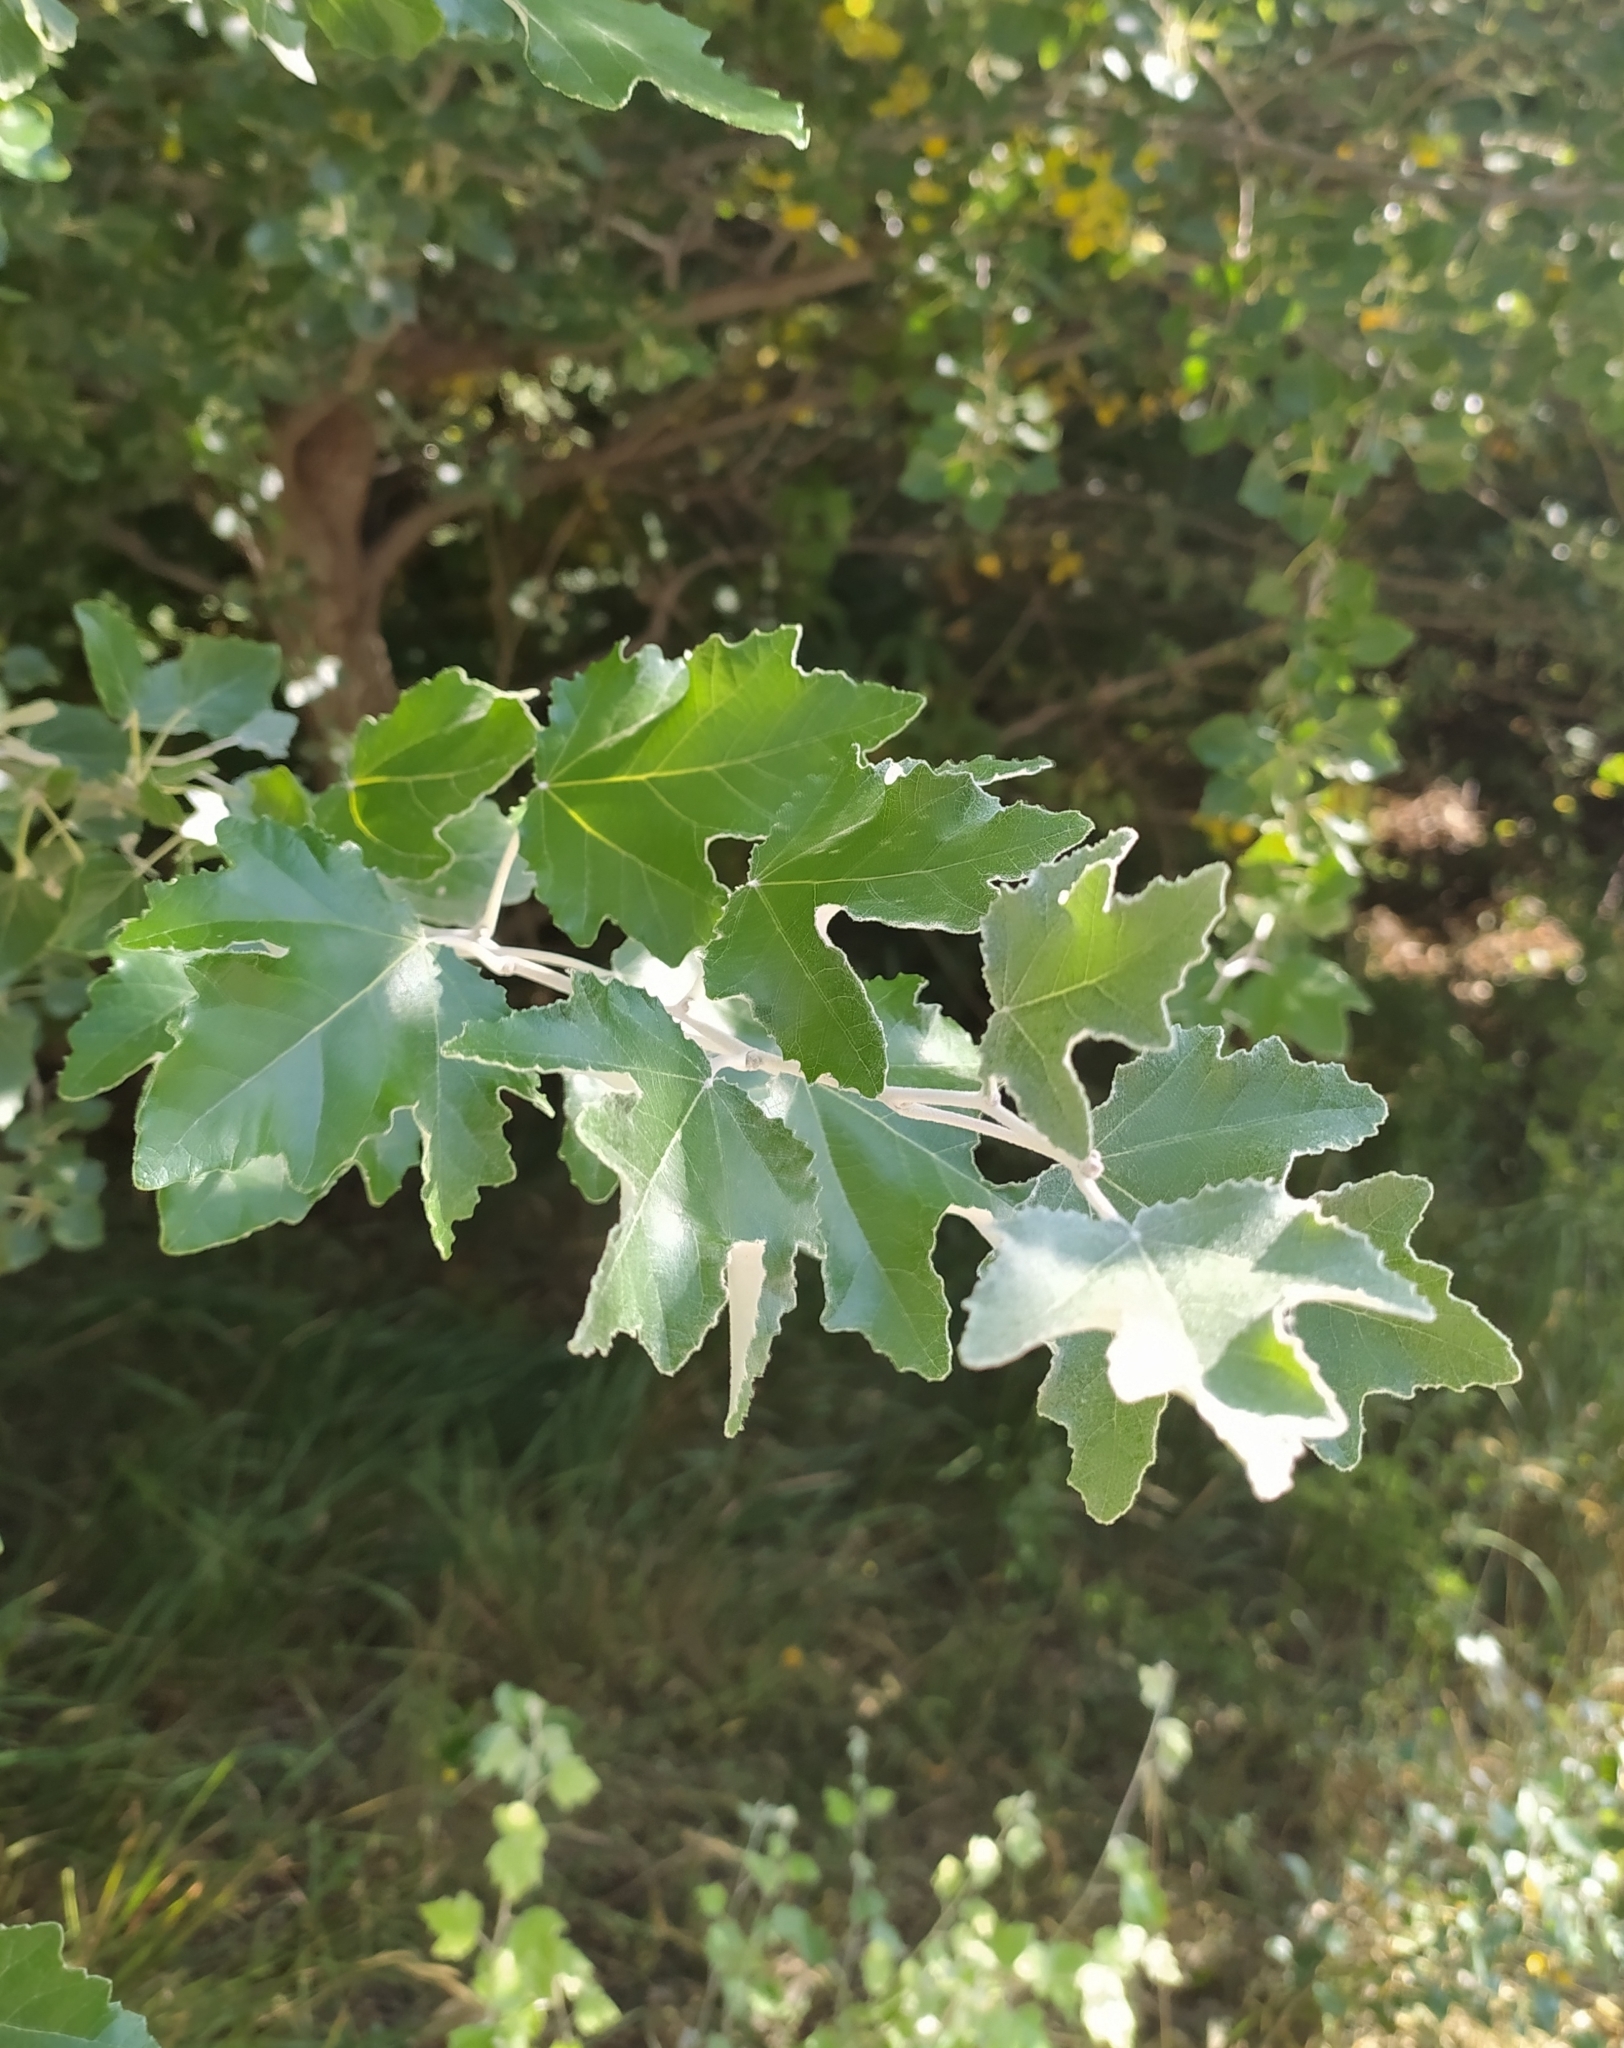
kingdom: Plantae
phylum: Tracheophyta
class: Magnoliopsida
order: Malpighiales
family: Salicaceae
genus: Populus
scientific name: Populus alba
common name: White poplar
